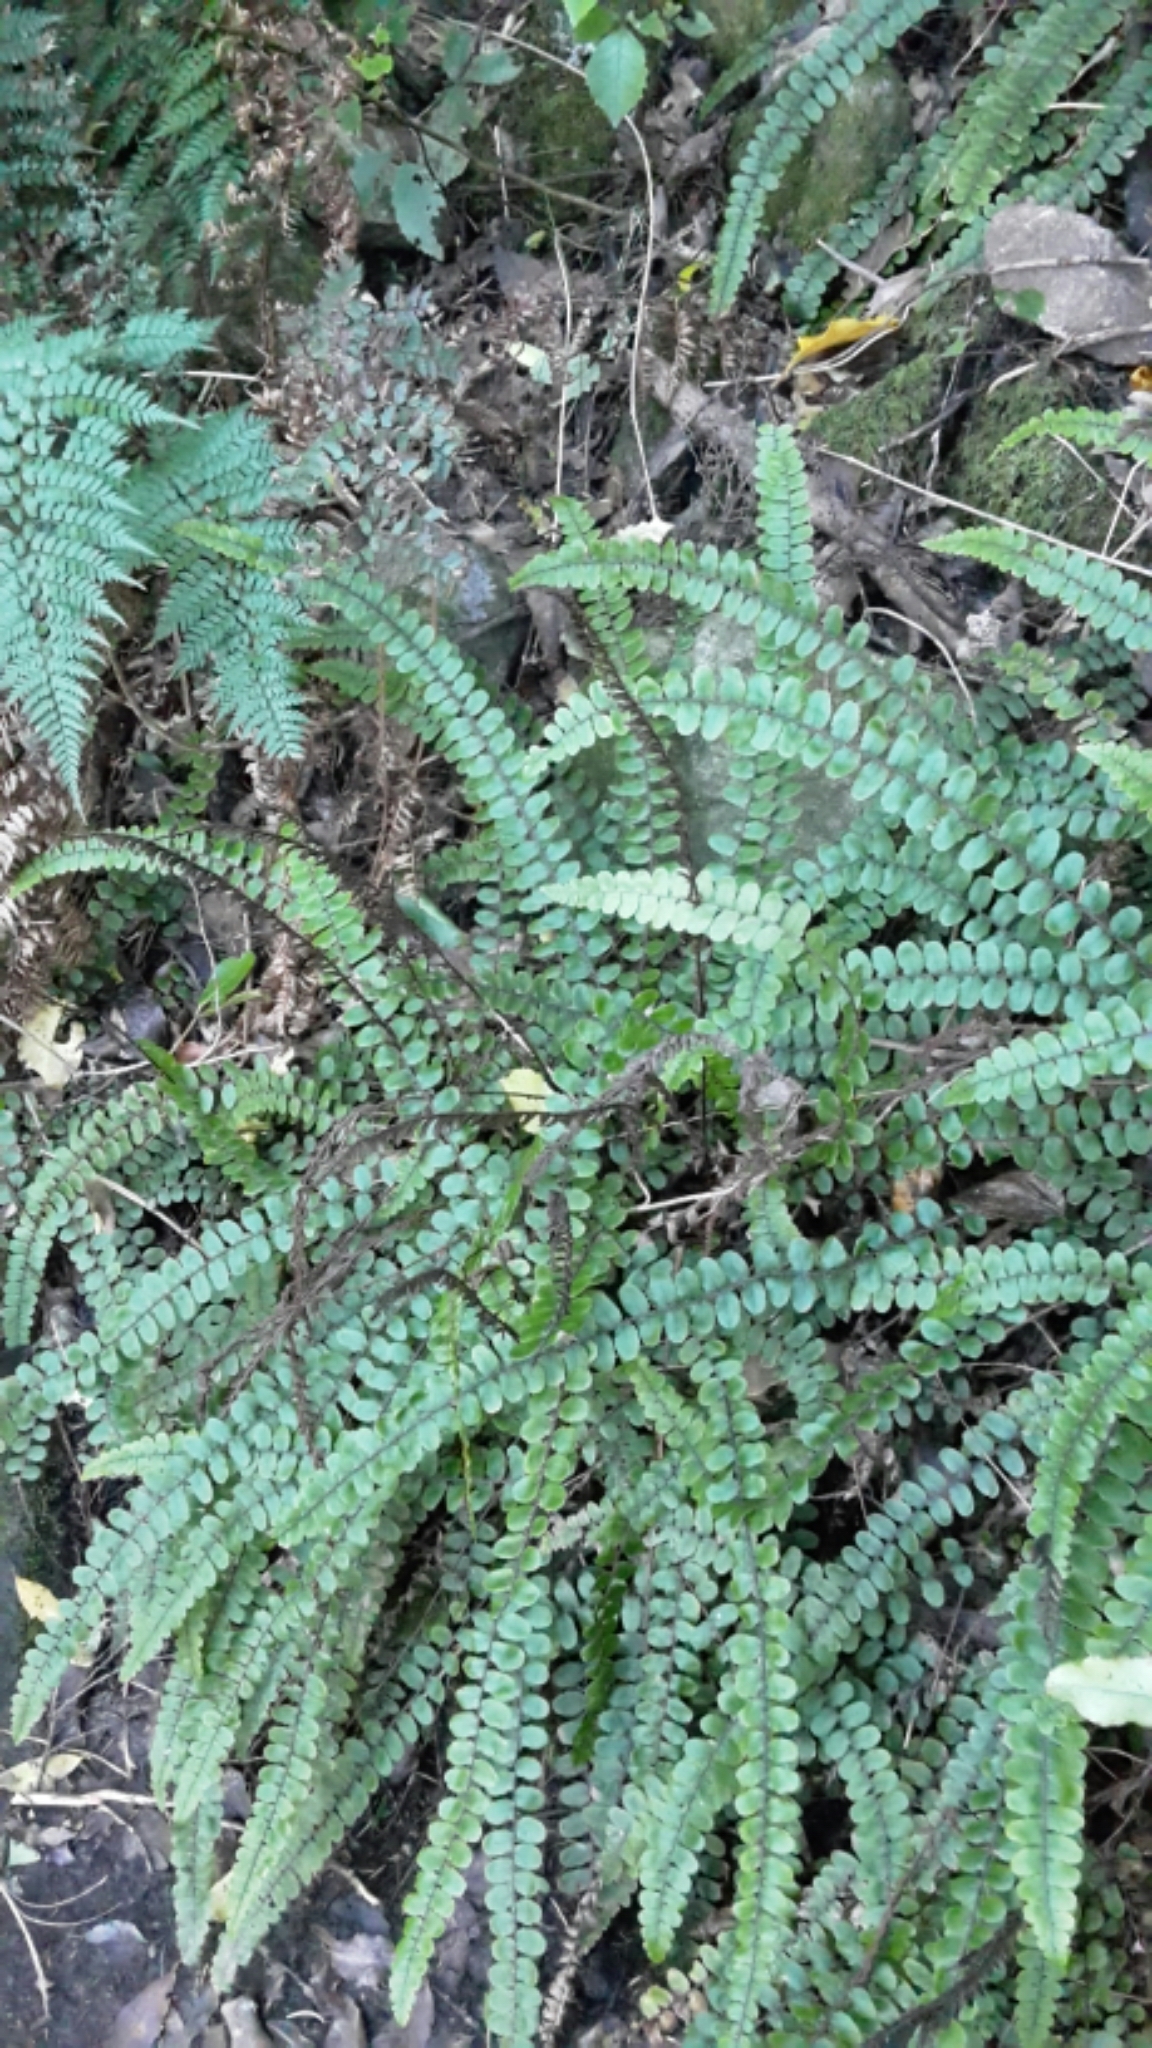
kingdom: Plantae
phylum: Tracheophyta
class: Polypodiopsida
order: Polypodiales
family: Blechnaceae
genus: Cranfillia
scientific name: Cranfillia fluviatilis
